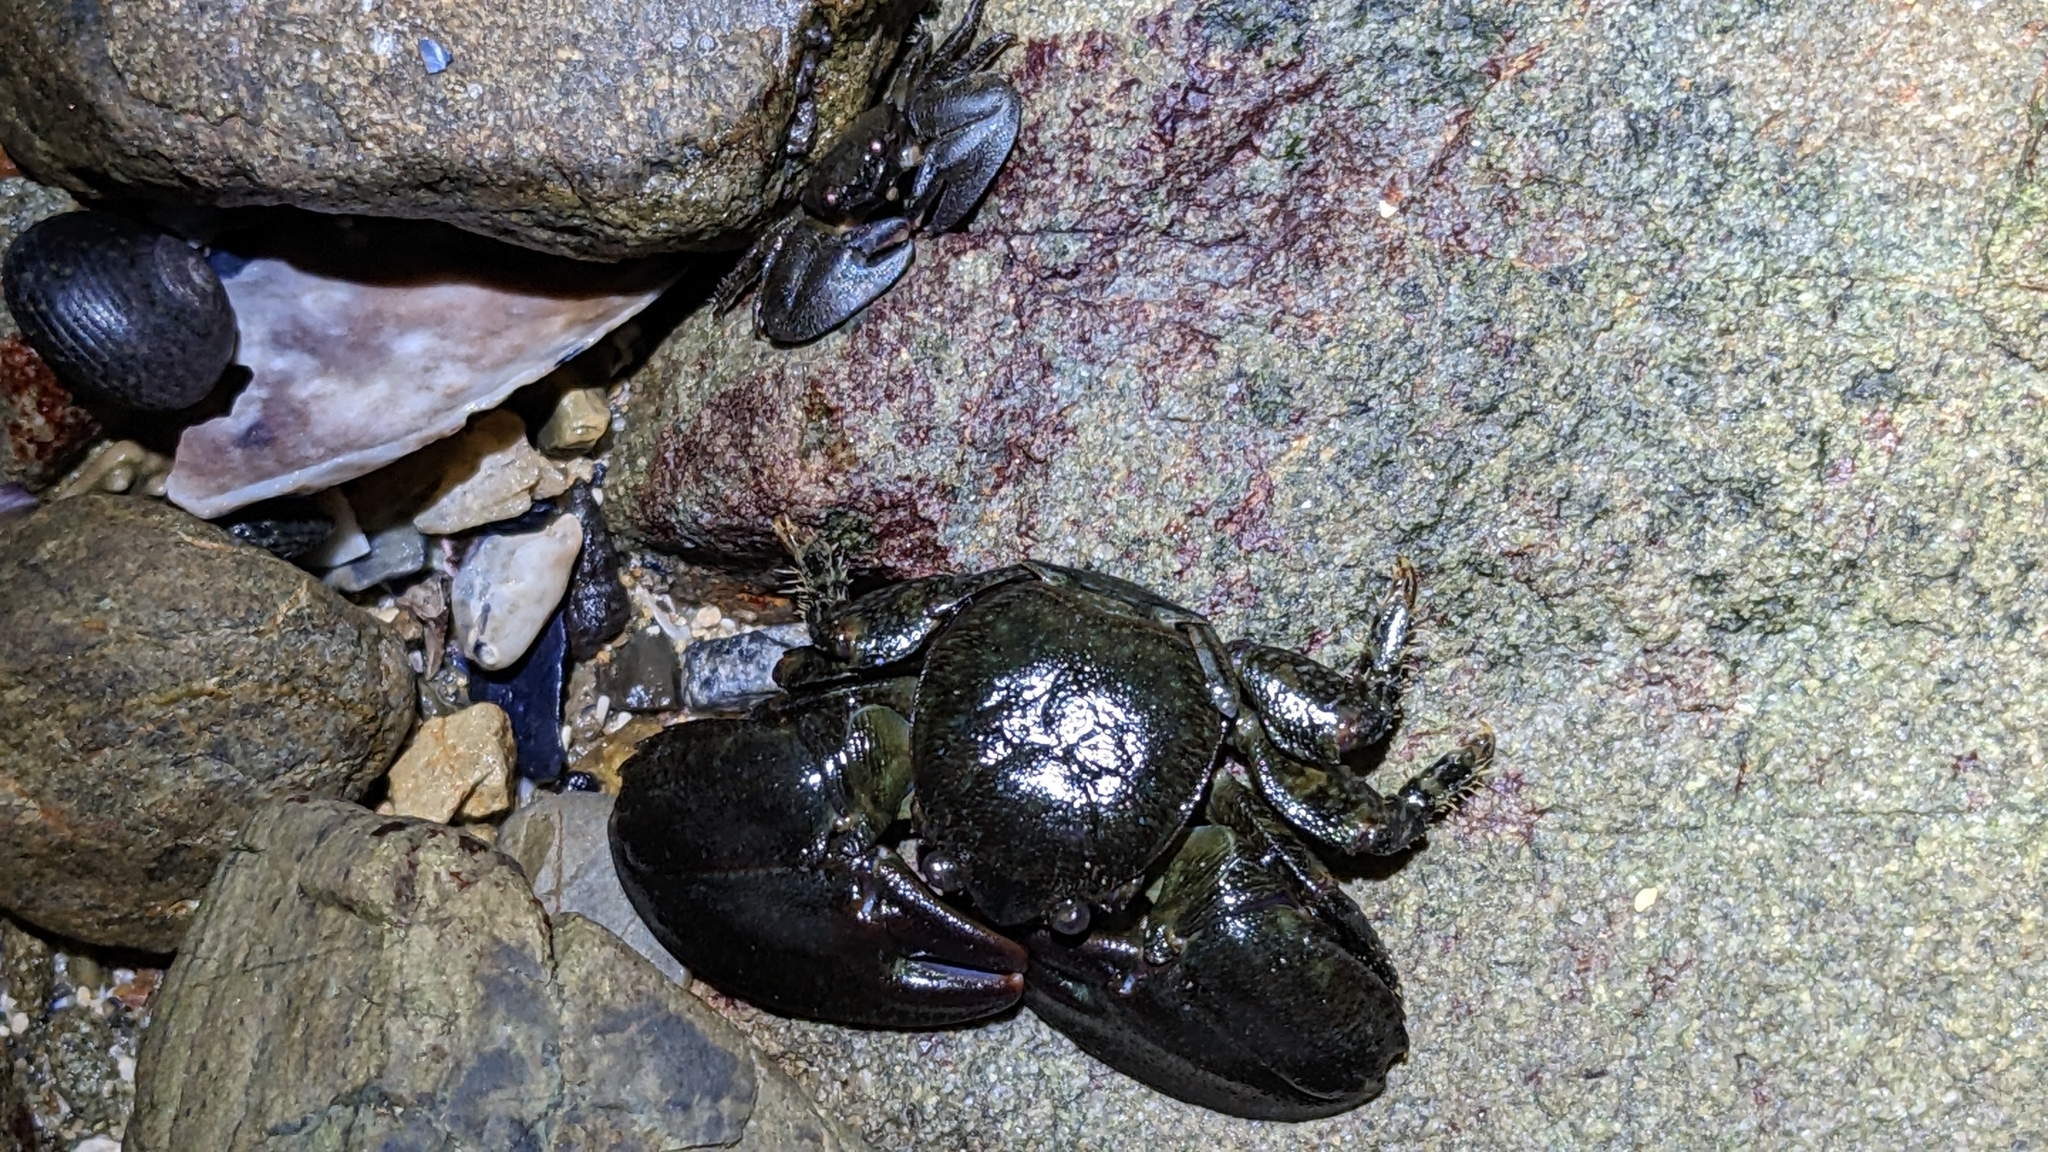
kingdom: Animalia
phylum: Arthropoda
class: Malacostraca
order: Decapoda
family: Porcellanidae
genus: Petrolisthes
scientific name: Petrolisthes elongatus
